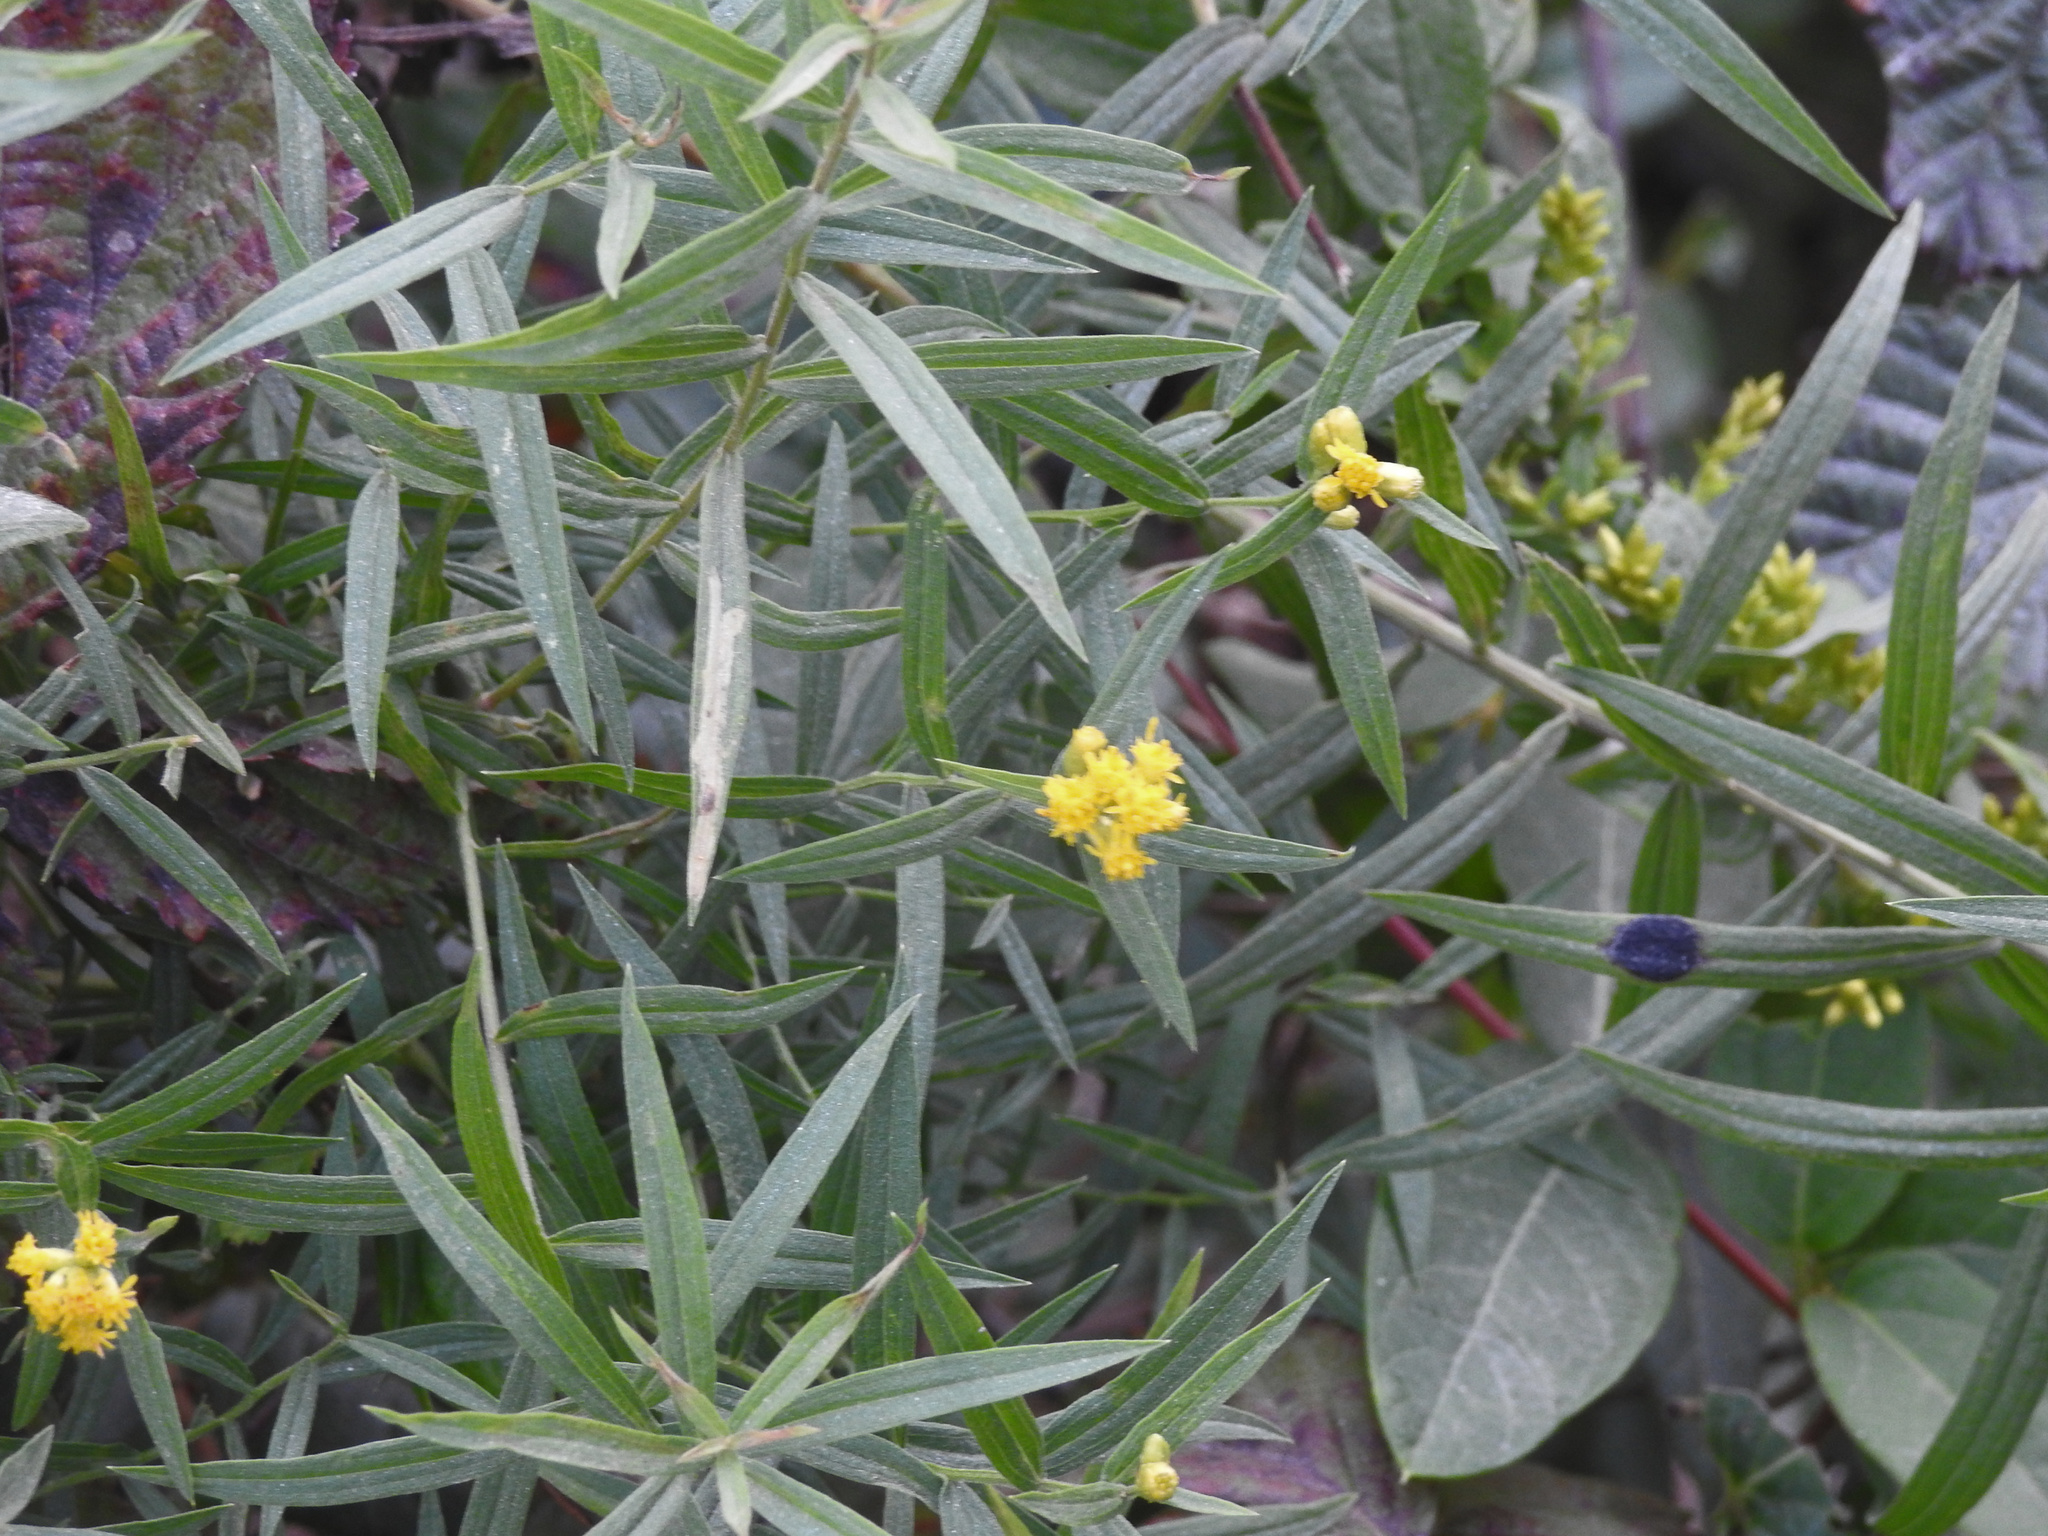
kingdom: Plantae
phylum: Tracheophyta
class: Magnoliopsida
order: Asterales
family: Asteraceae
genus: Euthamia
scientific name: Euthamia graminifolia
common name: Common goldentop
